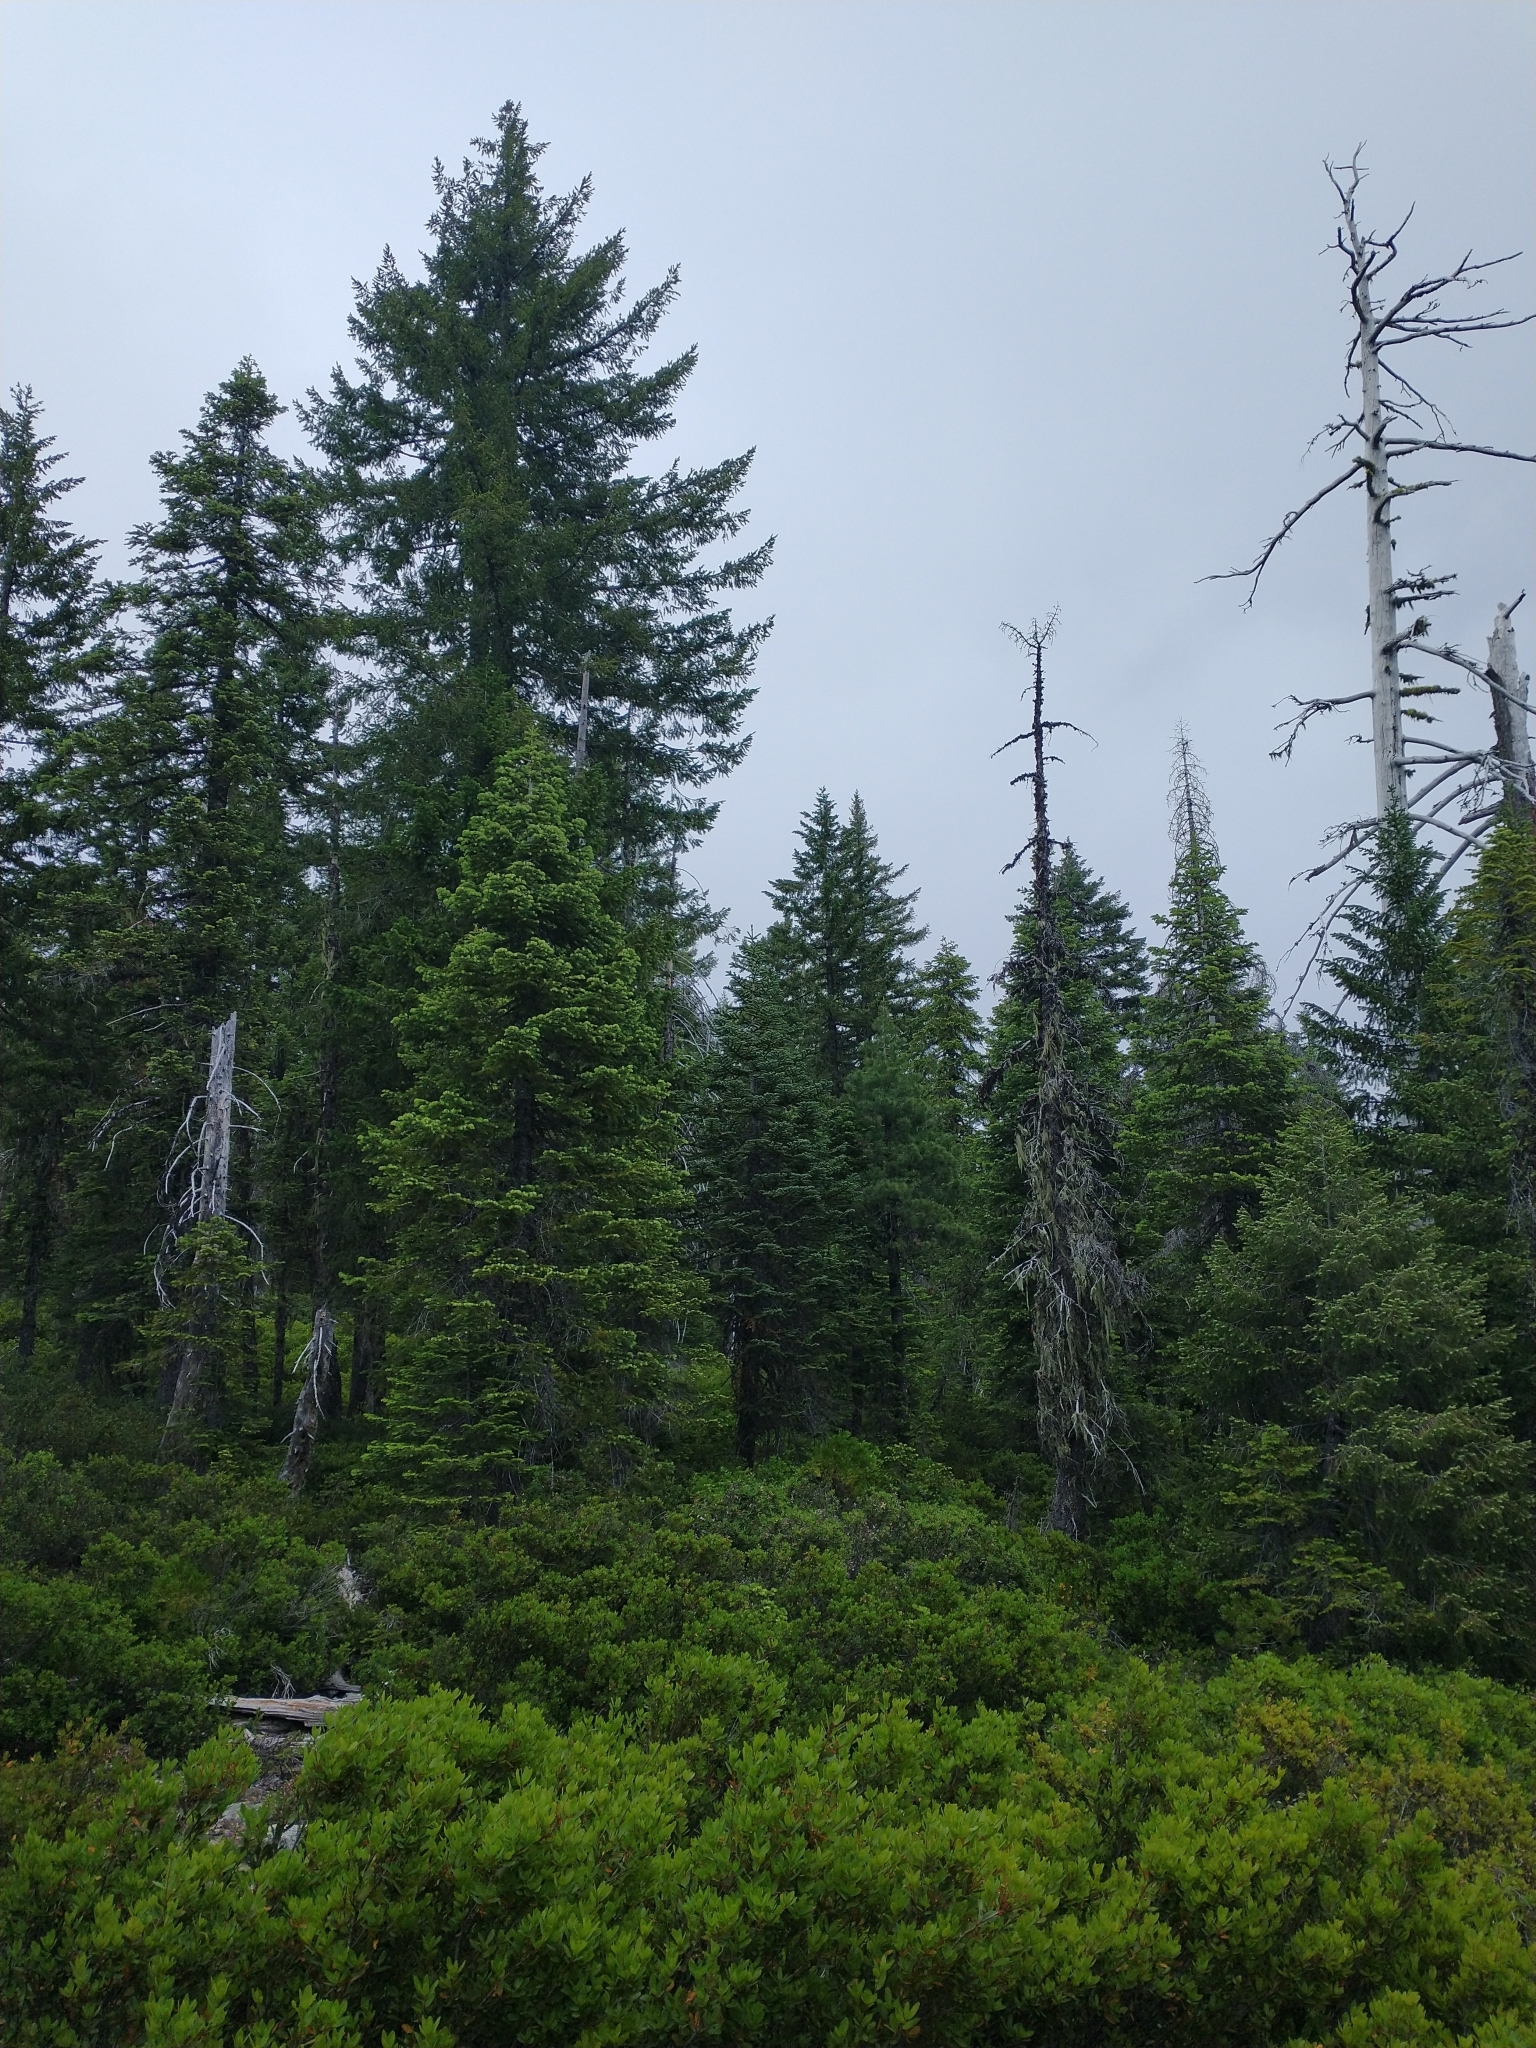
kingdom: Plantae
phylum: Tracheophyta
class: Pinopsida
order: Pinales
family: Pinaceae
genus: Pseudotsuga
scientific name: Pseudotsuga menziesii
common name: Douglas fir
